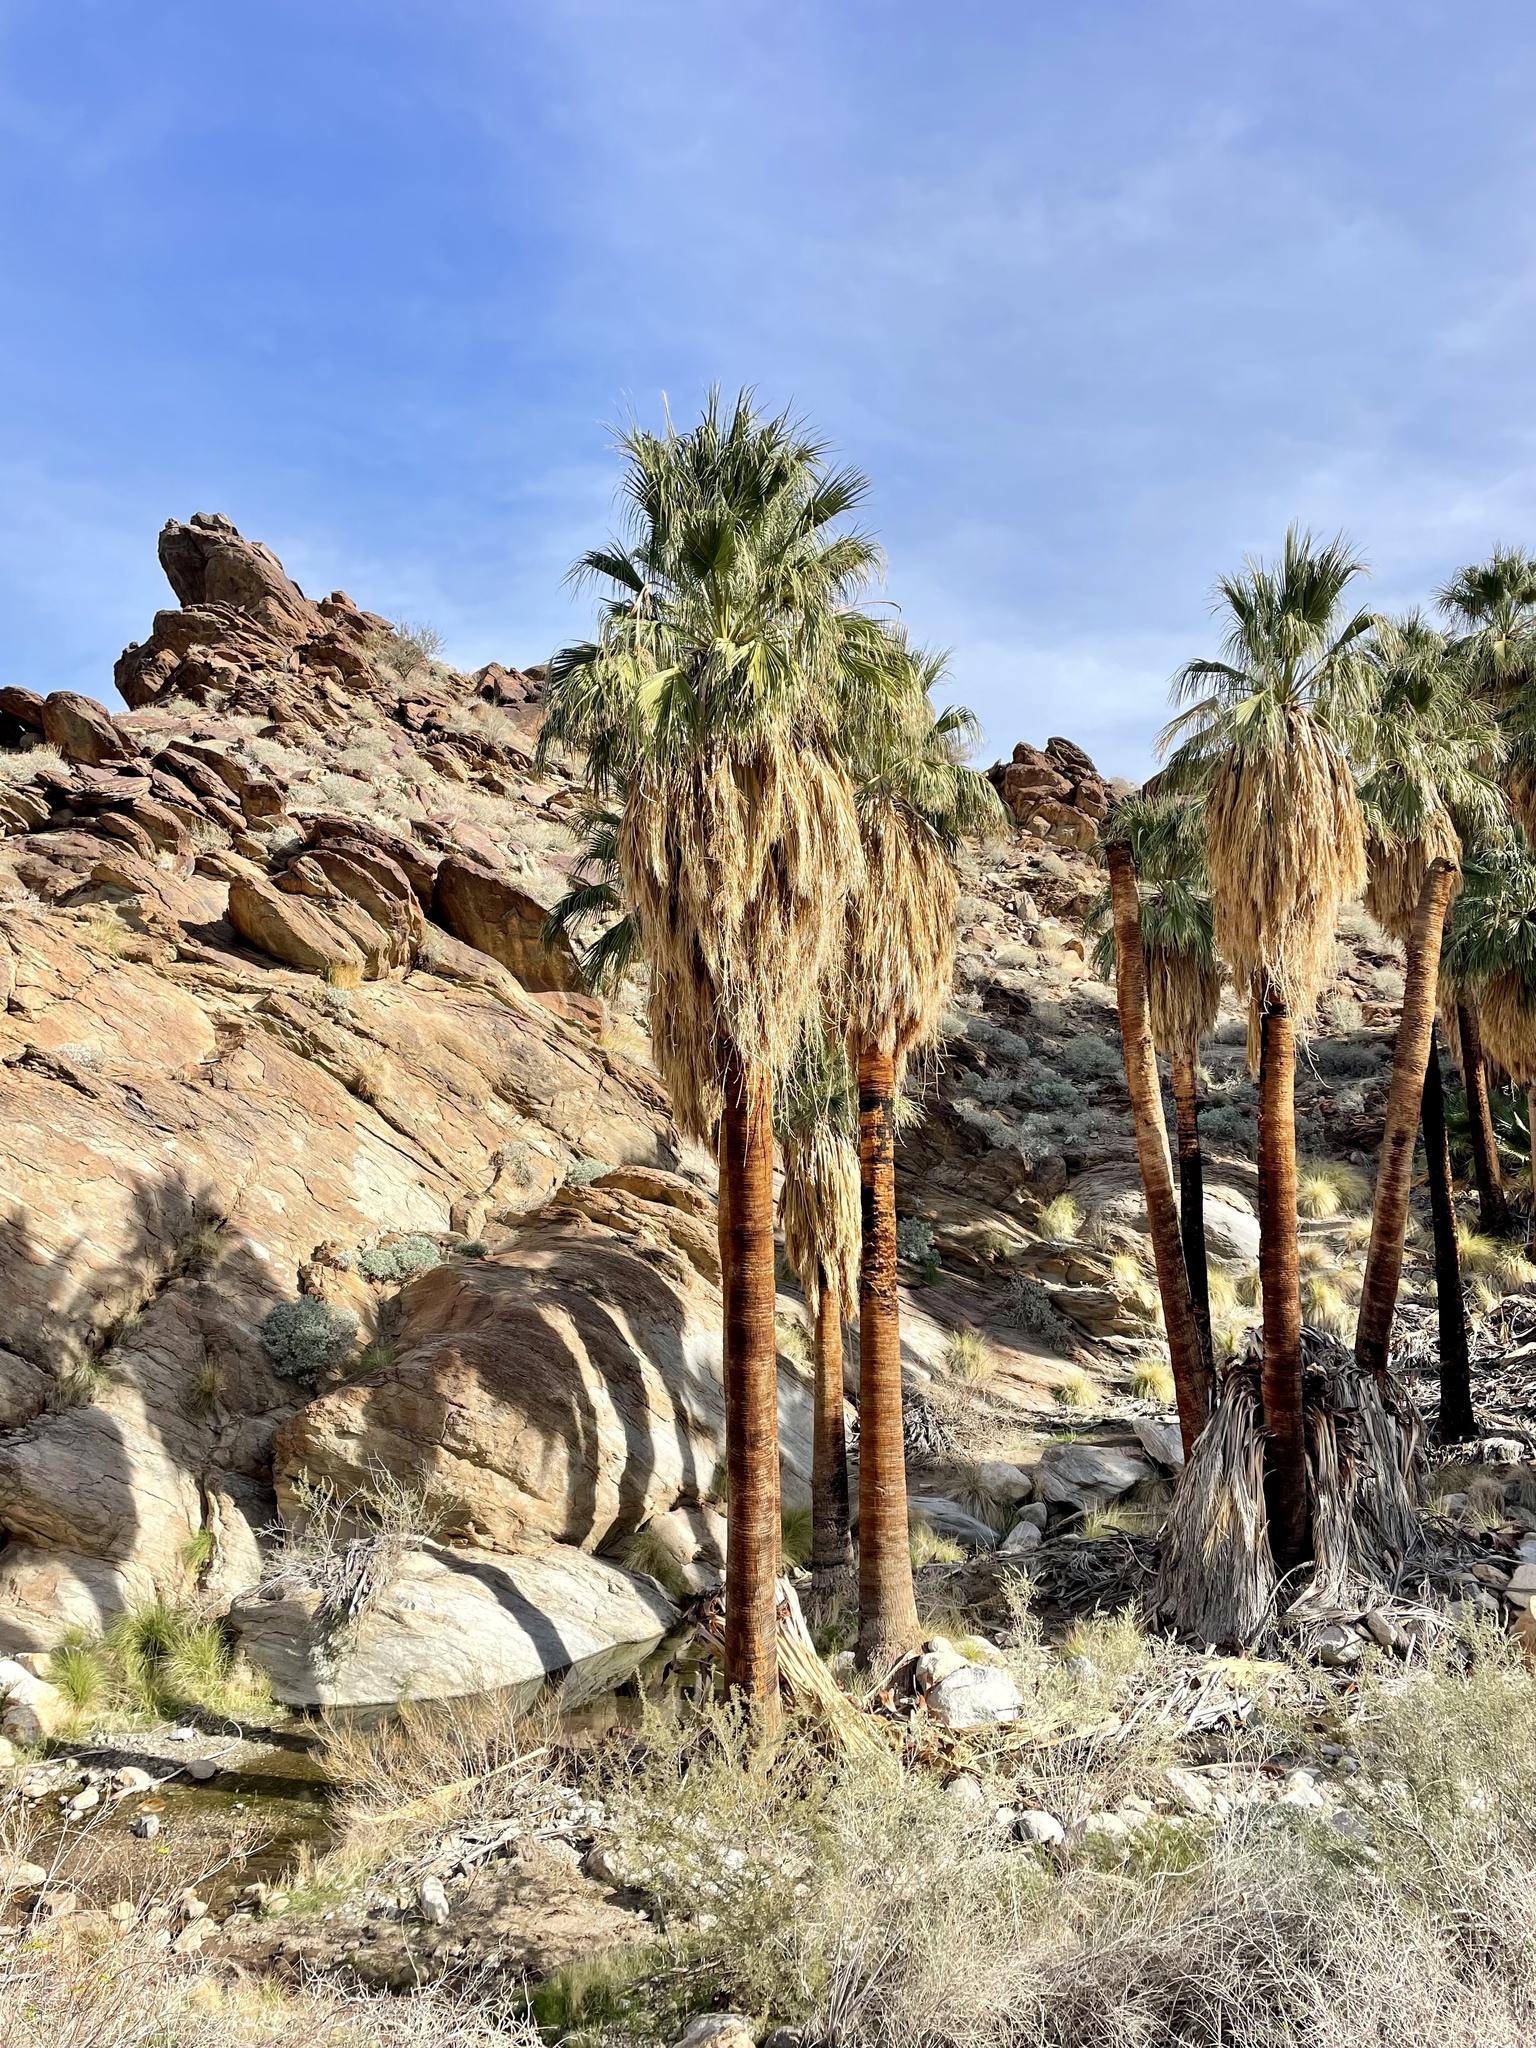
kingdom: Plantae
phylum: Tracheophyta
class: Liliopsida
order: Arecales
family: Arecaceae
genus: Washingtonia
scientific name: Washingtonia filifera
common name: California fan palm
